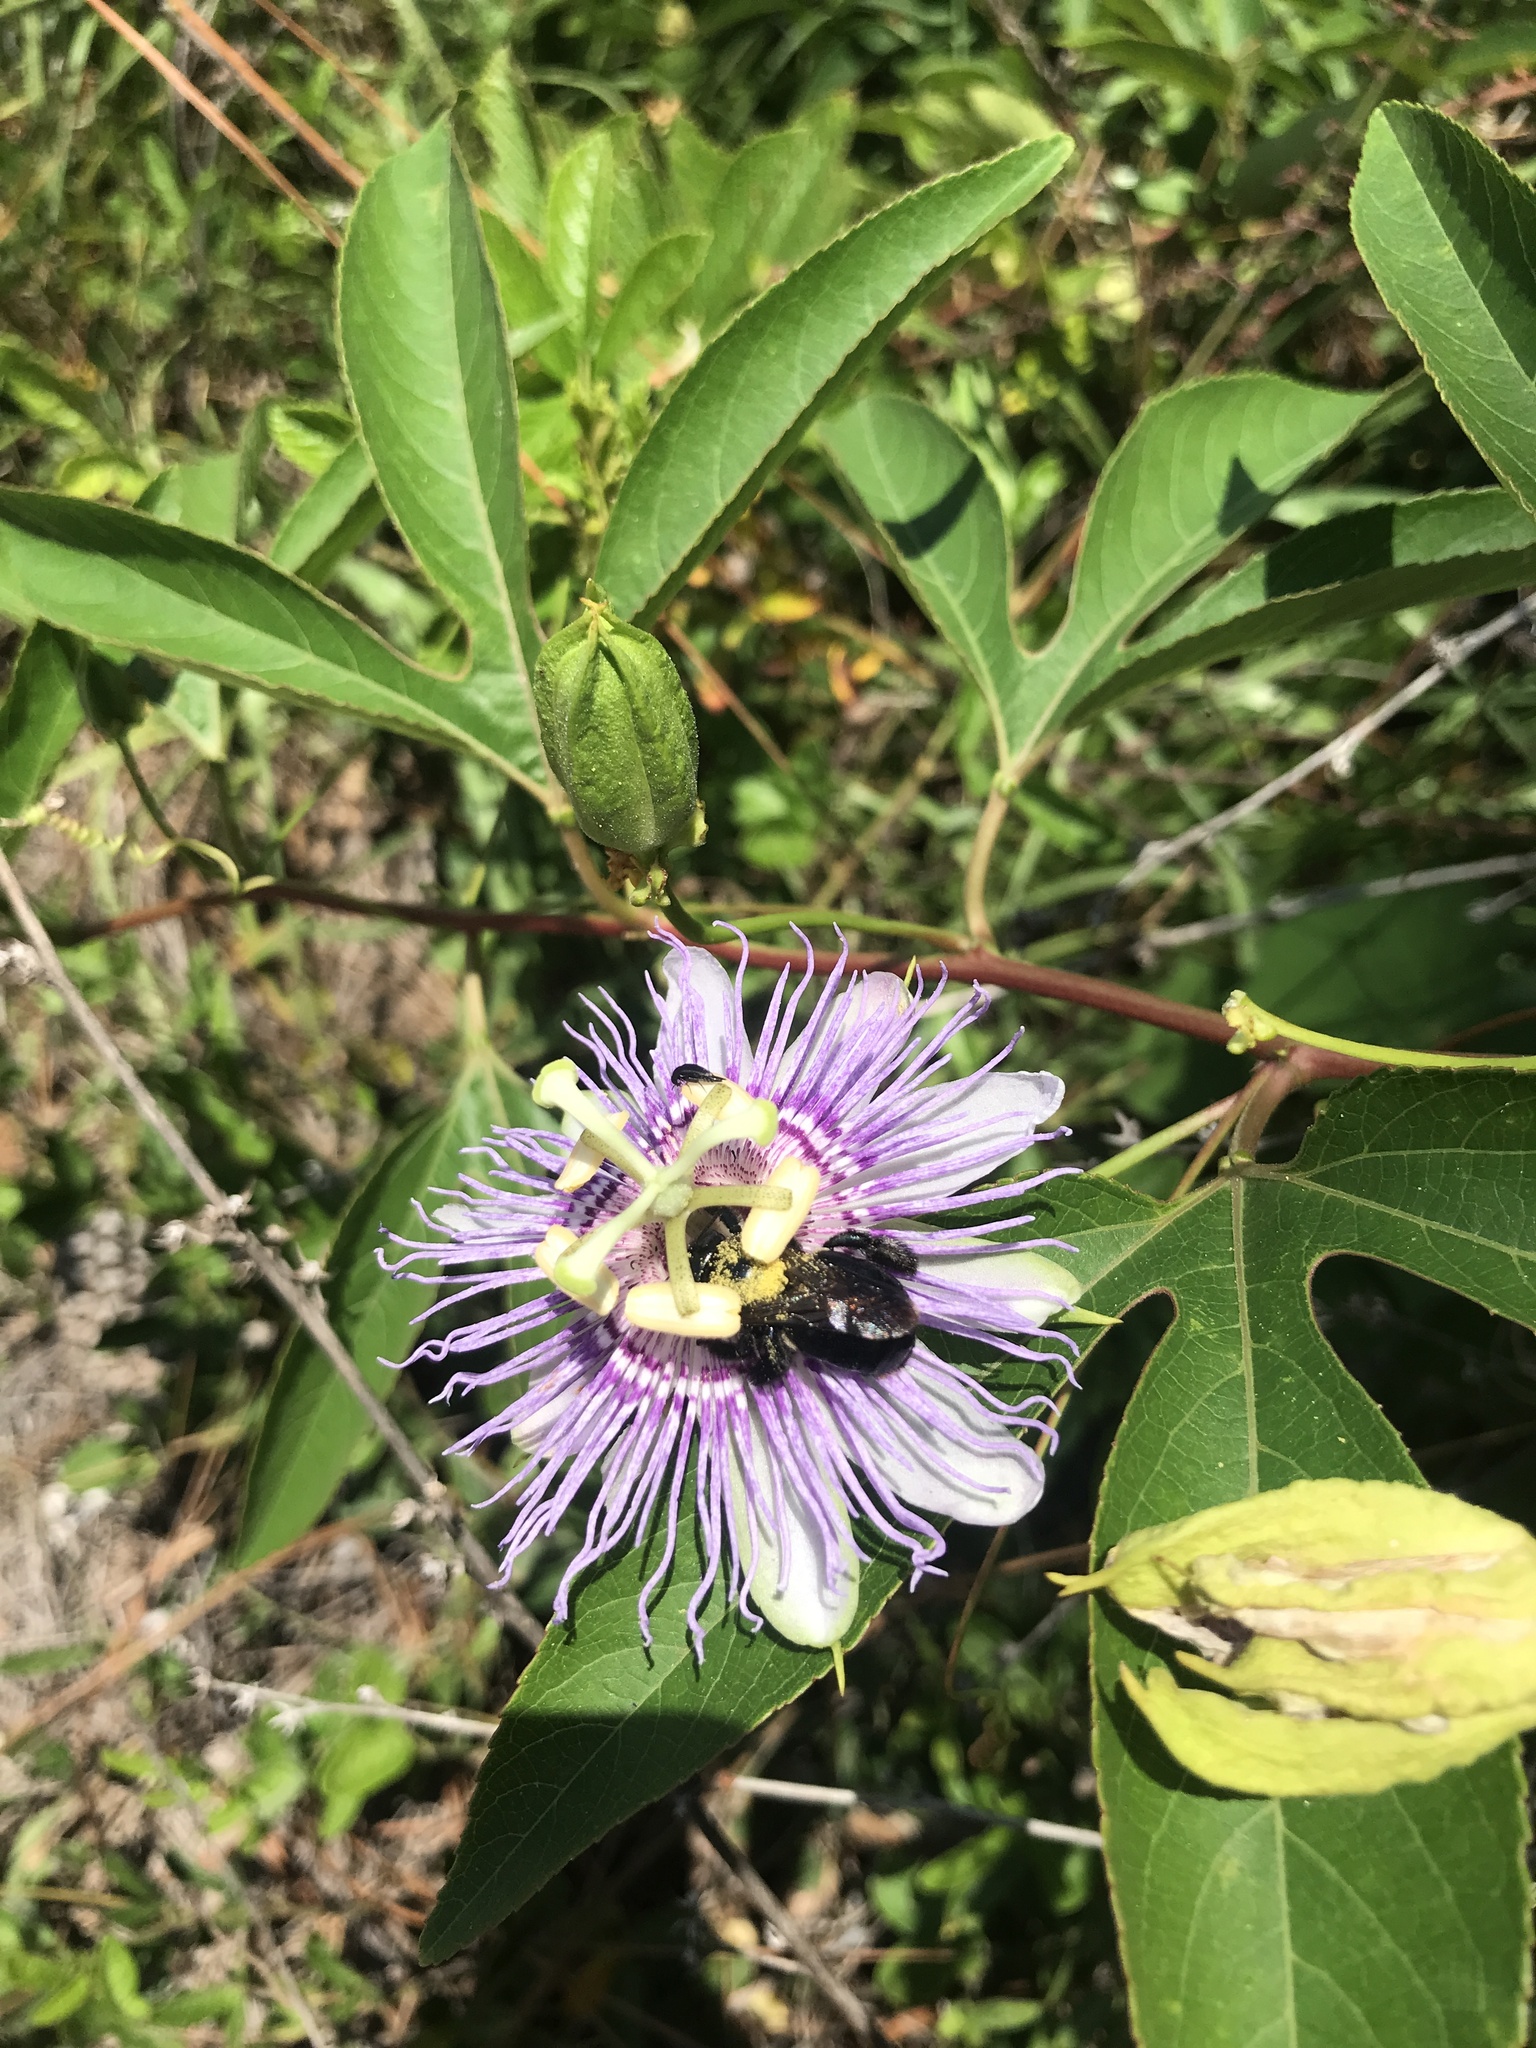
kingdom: Animalia
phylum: Arthropoda
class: Insecta
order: Hymenoptera
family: Apidae
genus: Xylocopa
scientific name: Xylocopa micans
